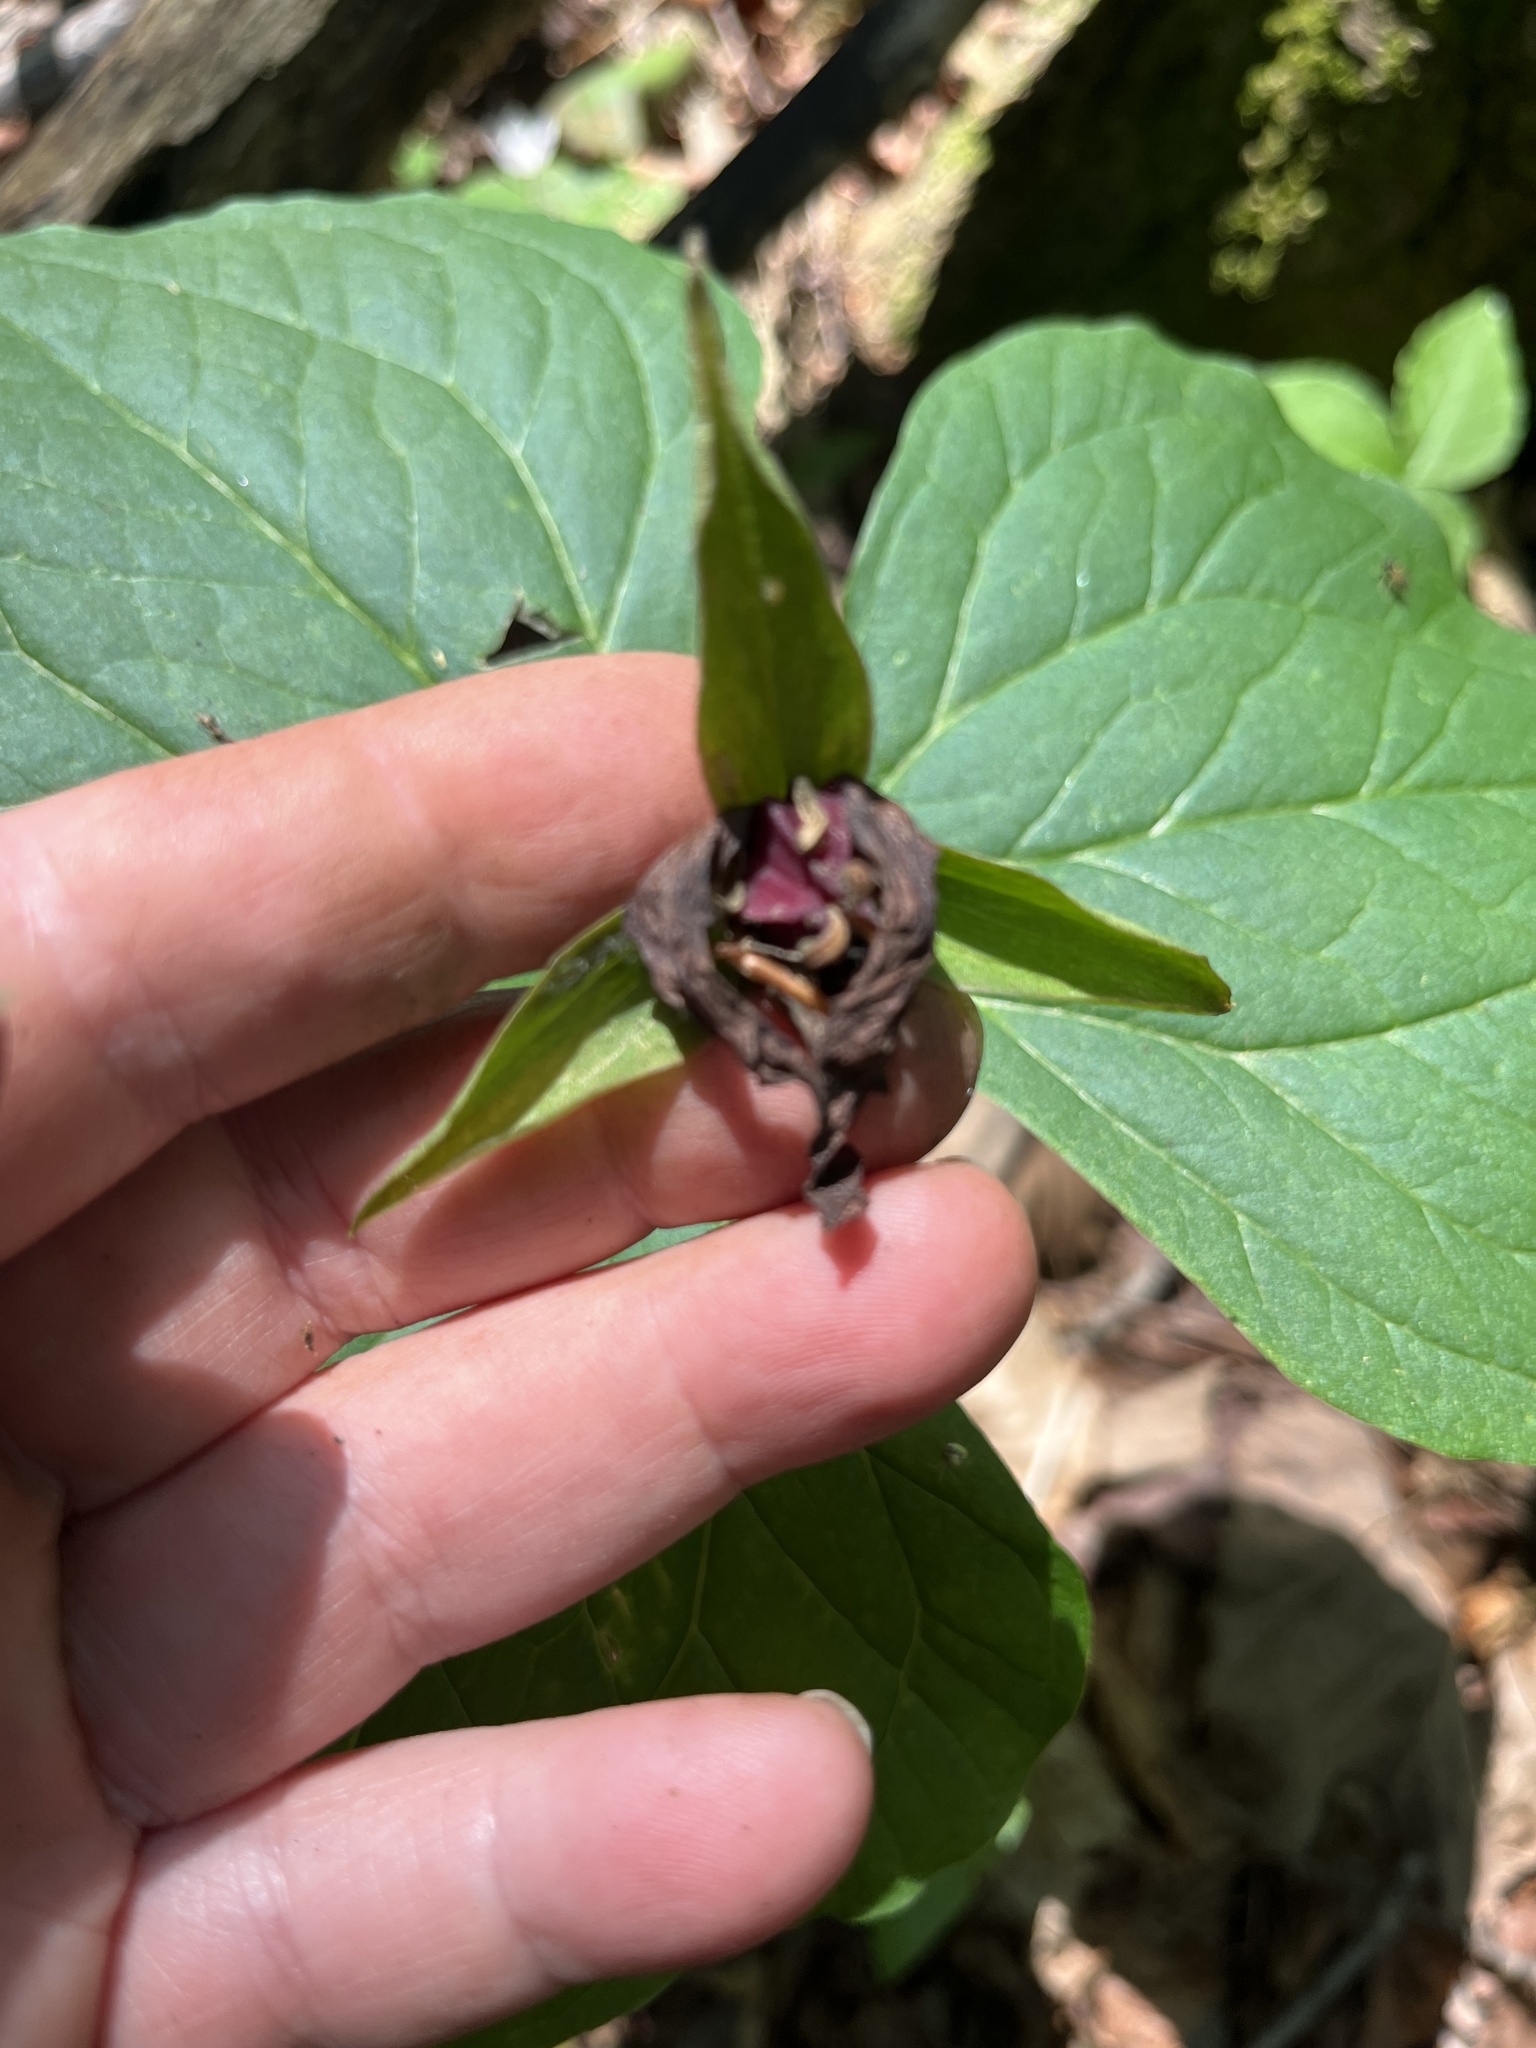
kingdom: Plantae
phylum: Tracheophyta
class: Liliopsida
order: Liliales
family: Melanthiaceae
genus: Trillium
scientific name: Trillium erectum
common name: Purple trillium
